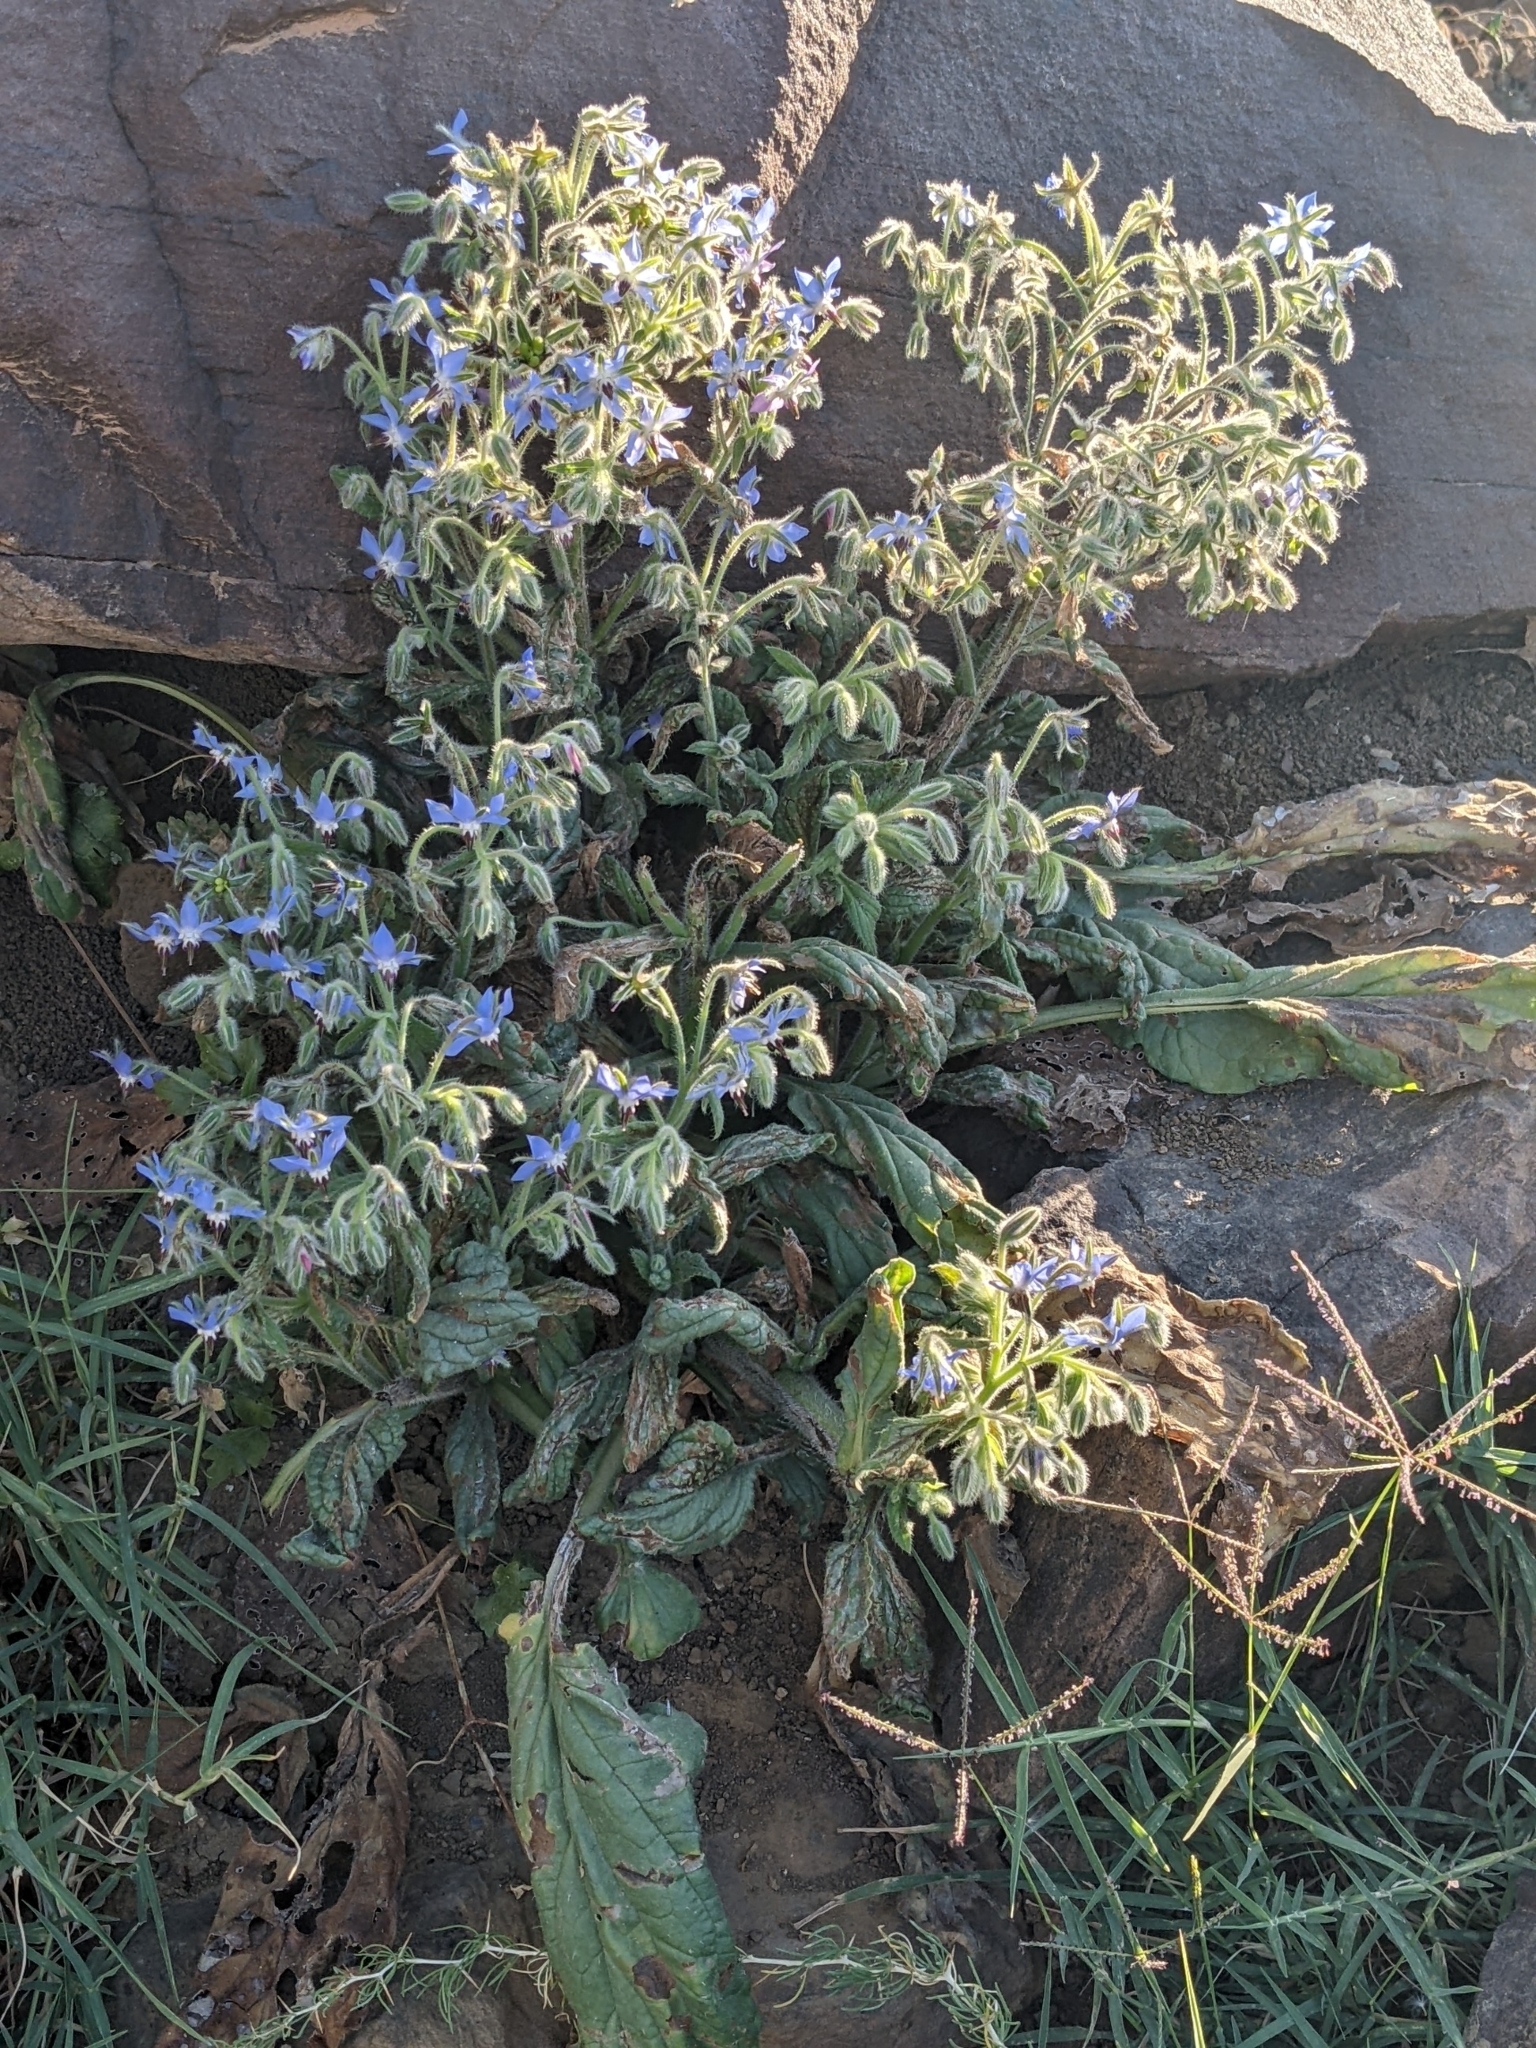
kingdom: Plantae
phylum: Tracheophyta
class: Magnoliopsida
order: Boraginales
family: Boraginaceae
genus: Borago
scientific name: Borago officinalis
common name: Borage
